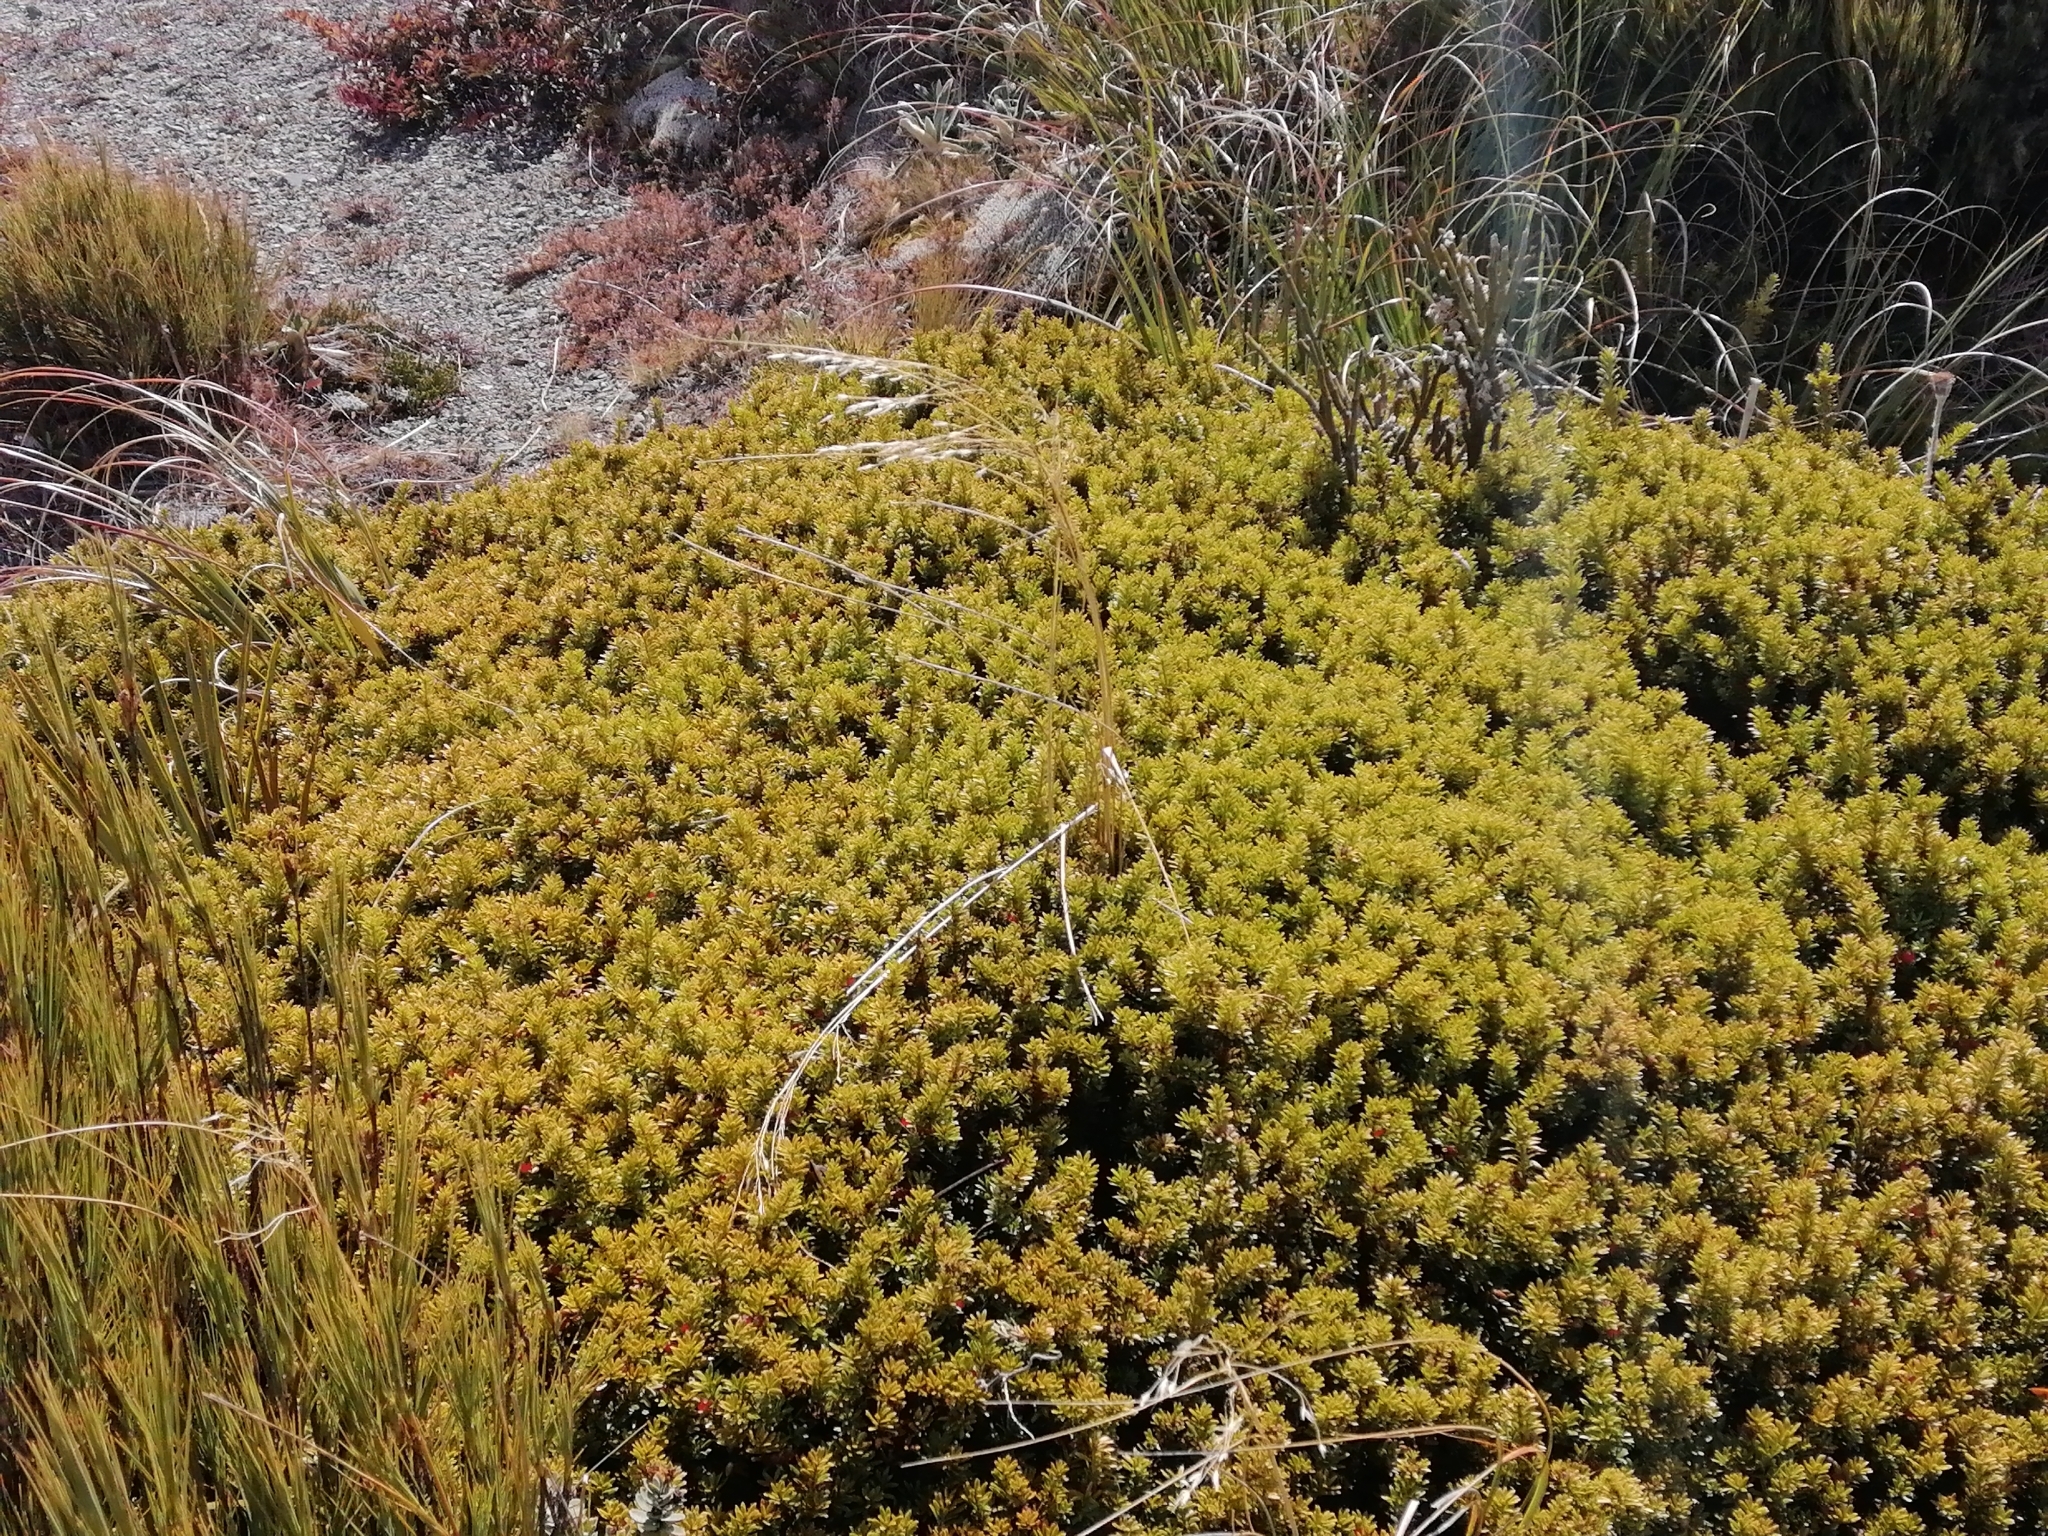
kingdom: Plantae
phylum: Tracheophyta
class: Pinopsida
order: Pinales
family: Podocarpaceae
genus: Podocarpus
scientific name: Podocarpus nivalis
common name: Alpine totara
